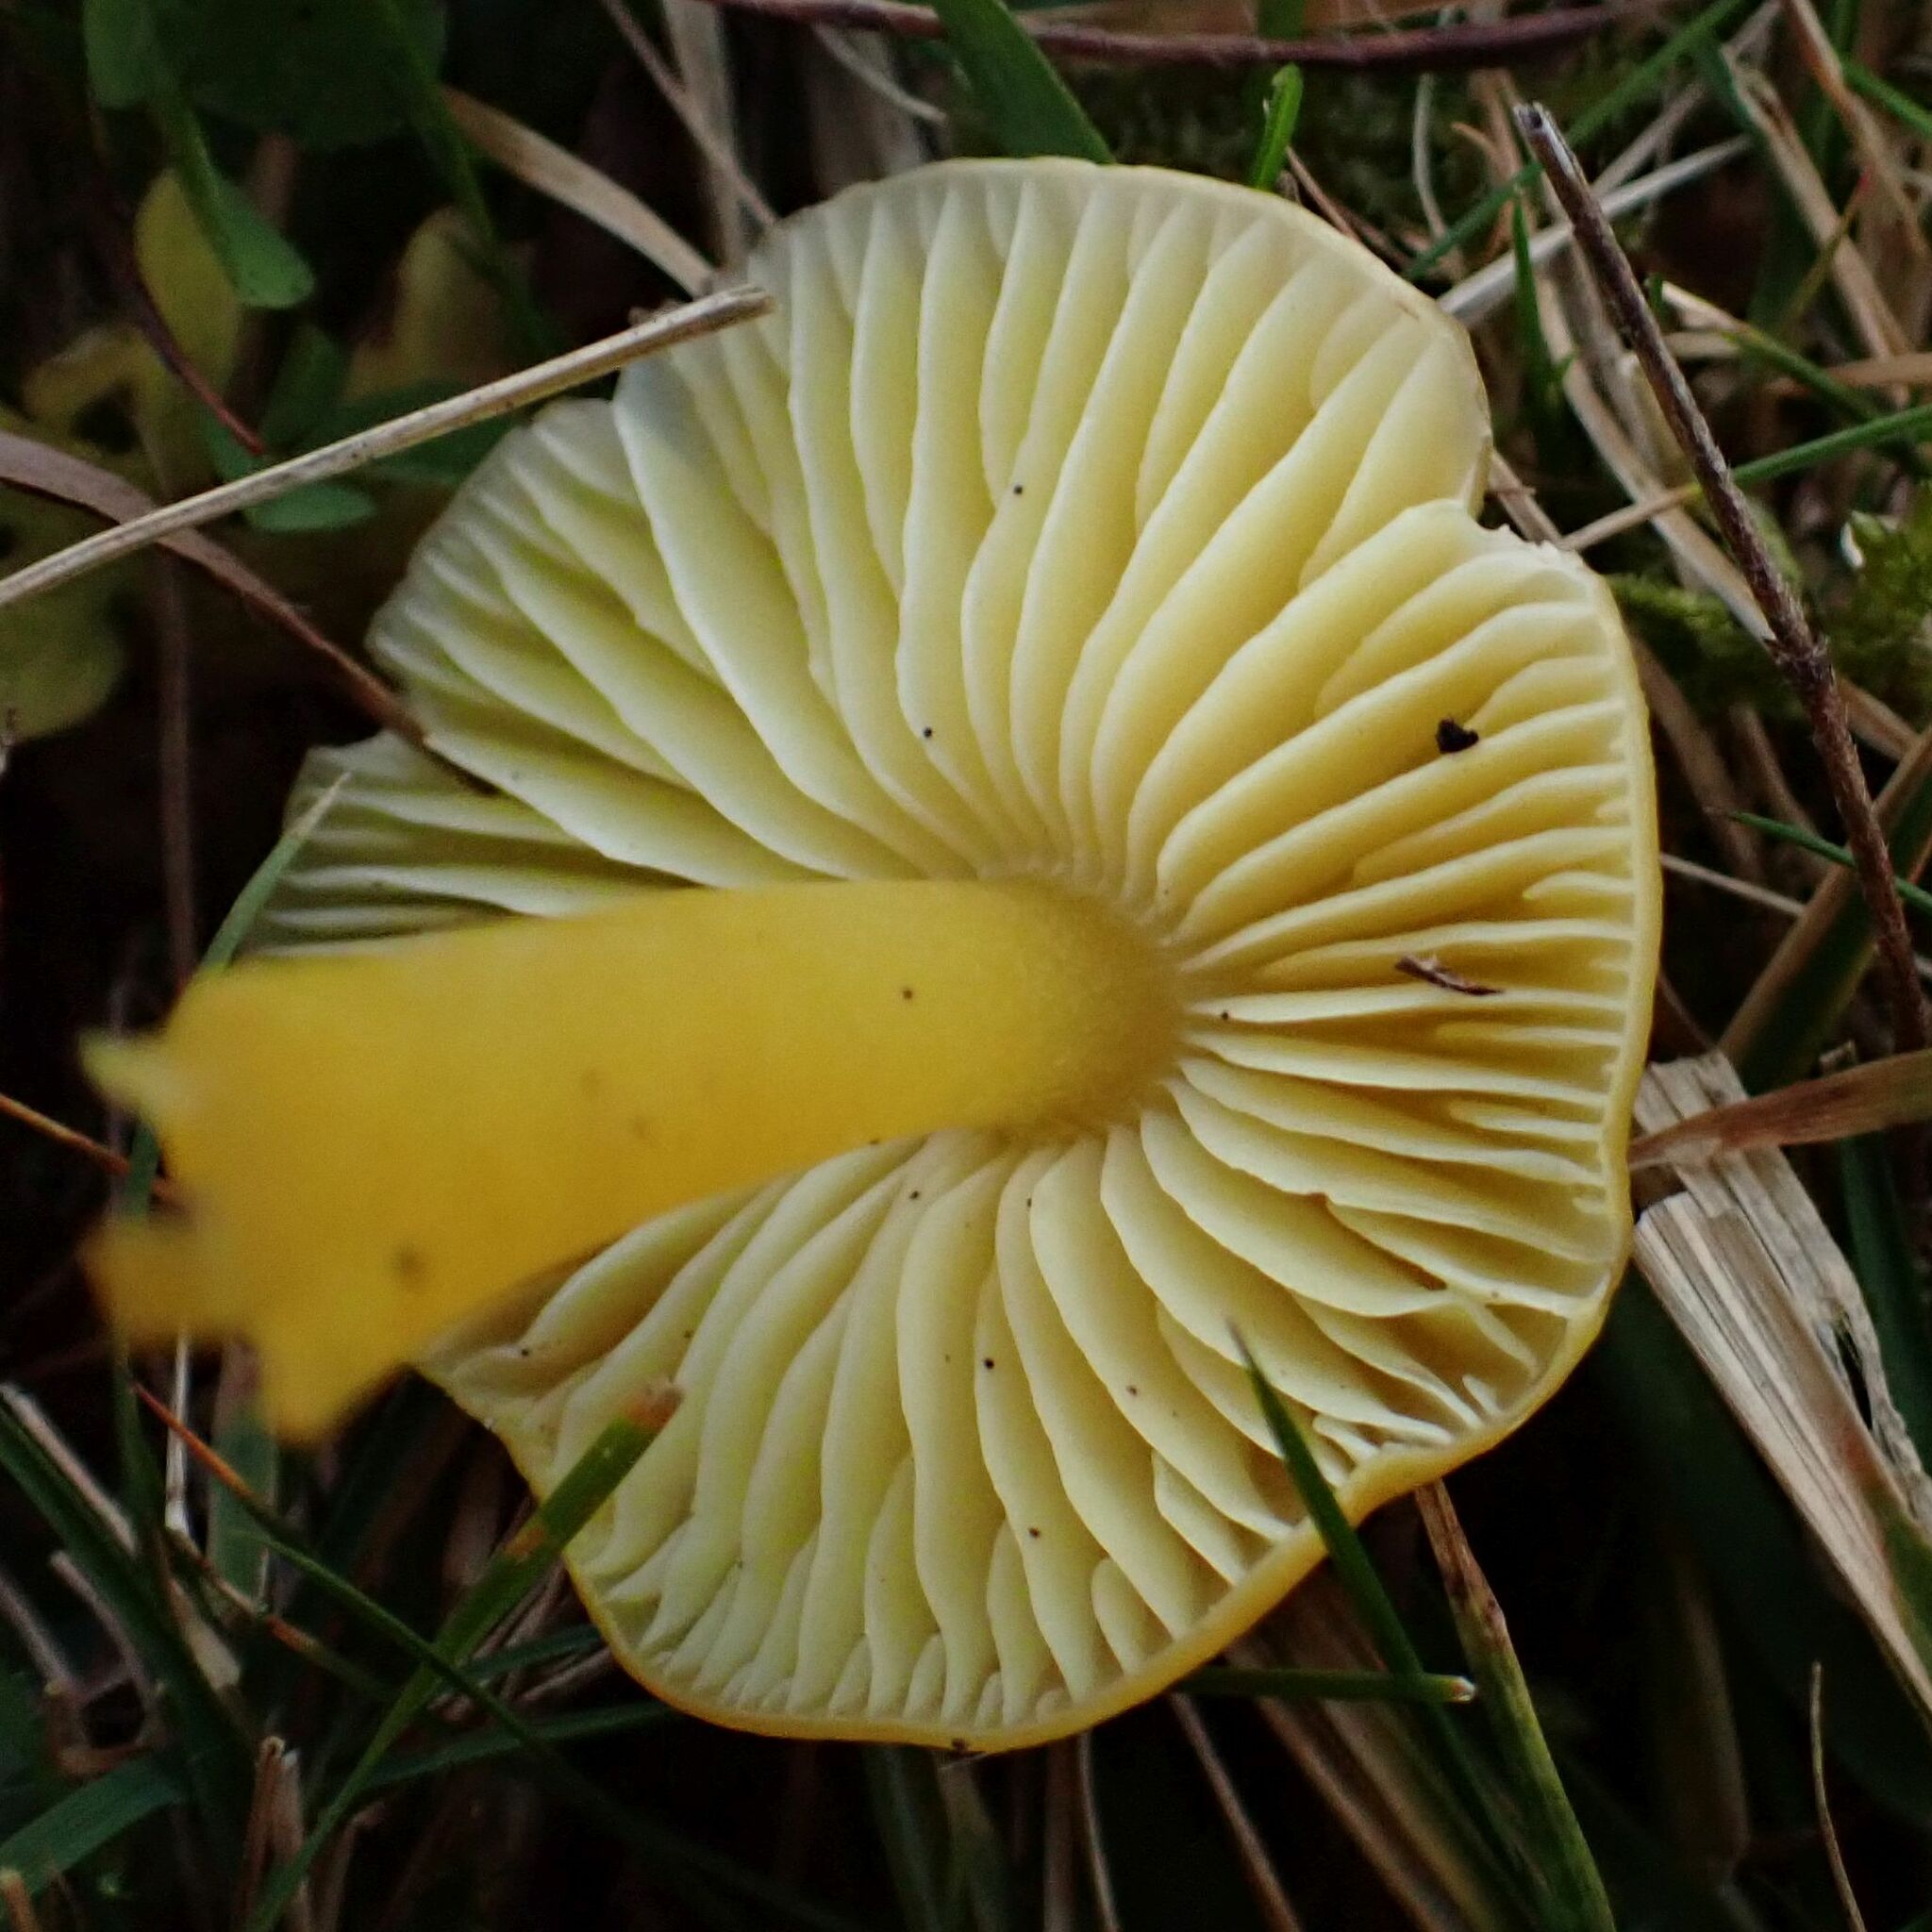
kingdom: Fungi
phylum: Basidiomycota
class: Agaricomycetes
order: Agaricales
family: Hygrophoraceae
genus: Hygrocybe
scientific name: Hygrocybe chlorophana
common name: Golden waxcap
